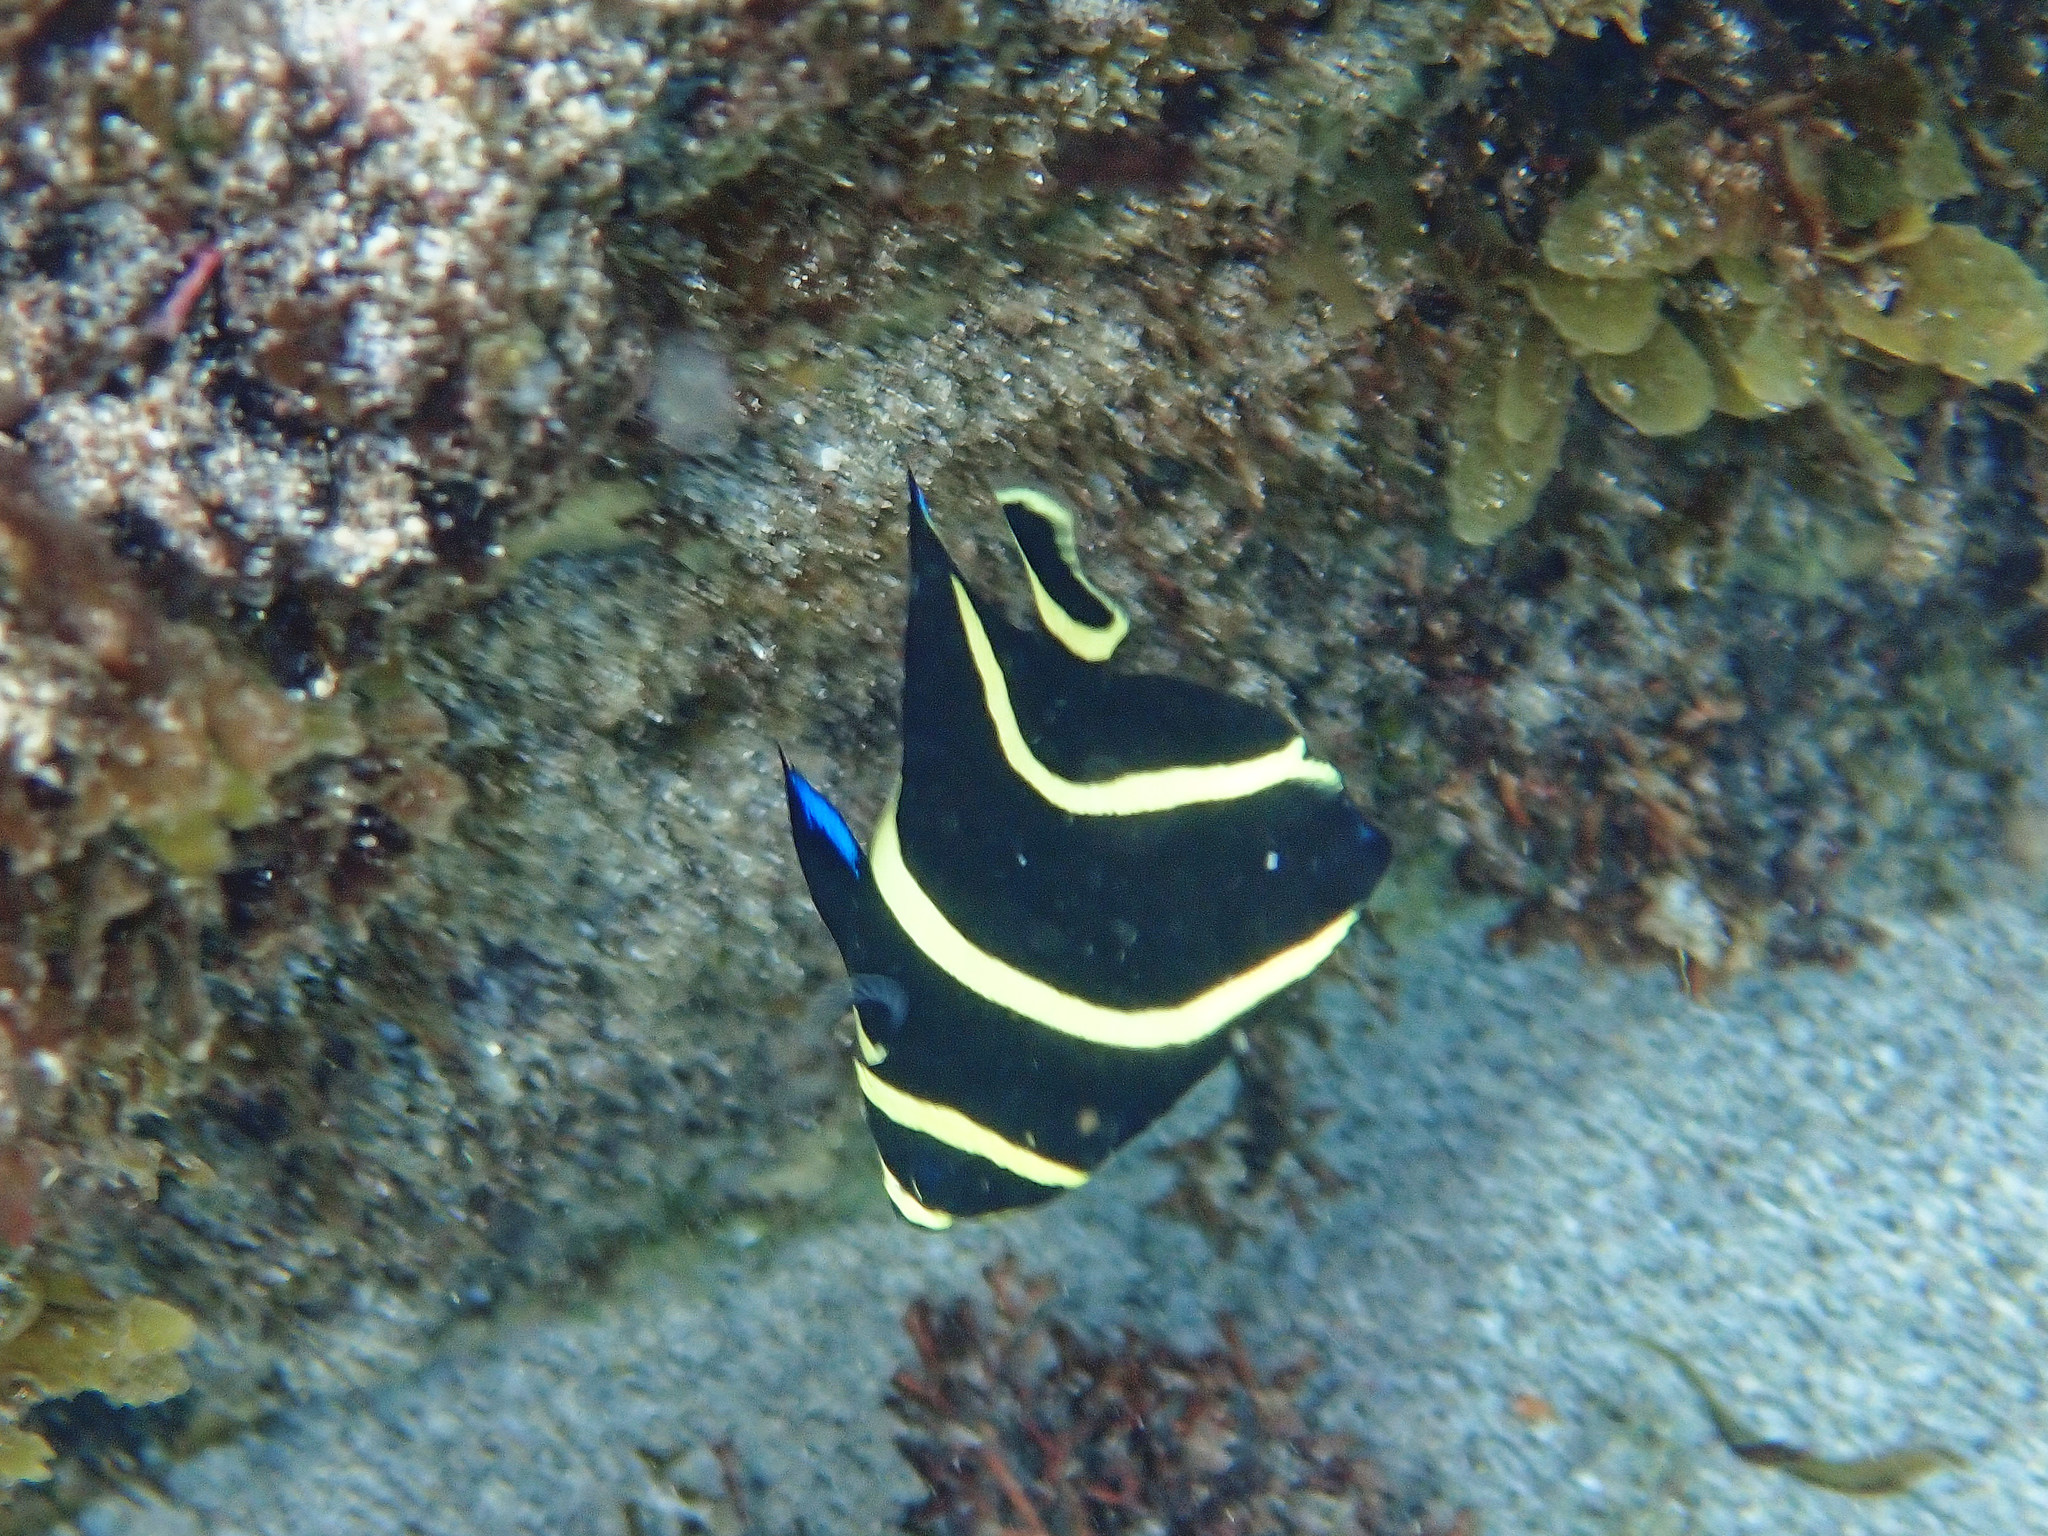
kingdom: Animalia
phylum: Chordata
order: Perciformes
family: Pomacanthidae
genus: Pomacanthus
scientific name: Pomacanthus paru
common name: French angelfish
